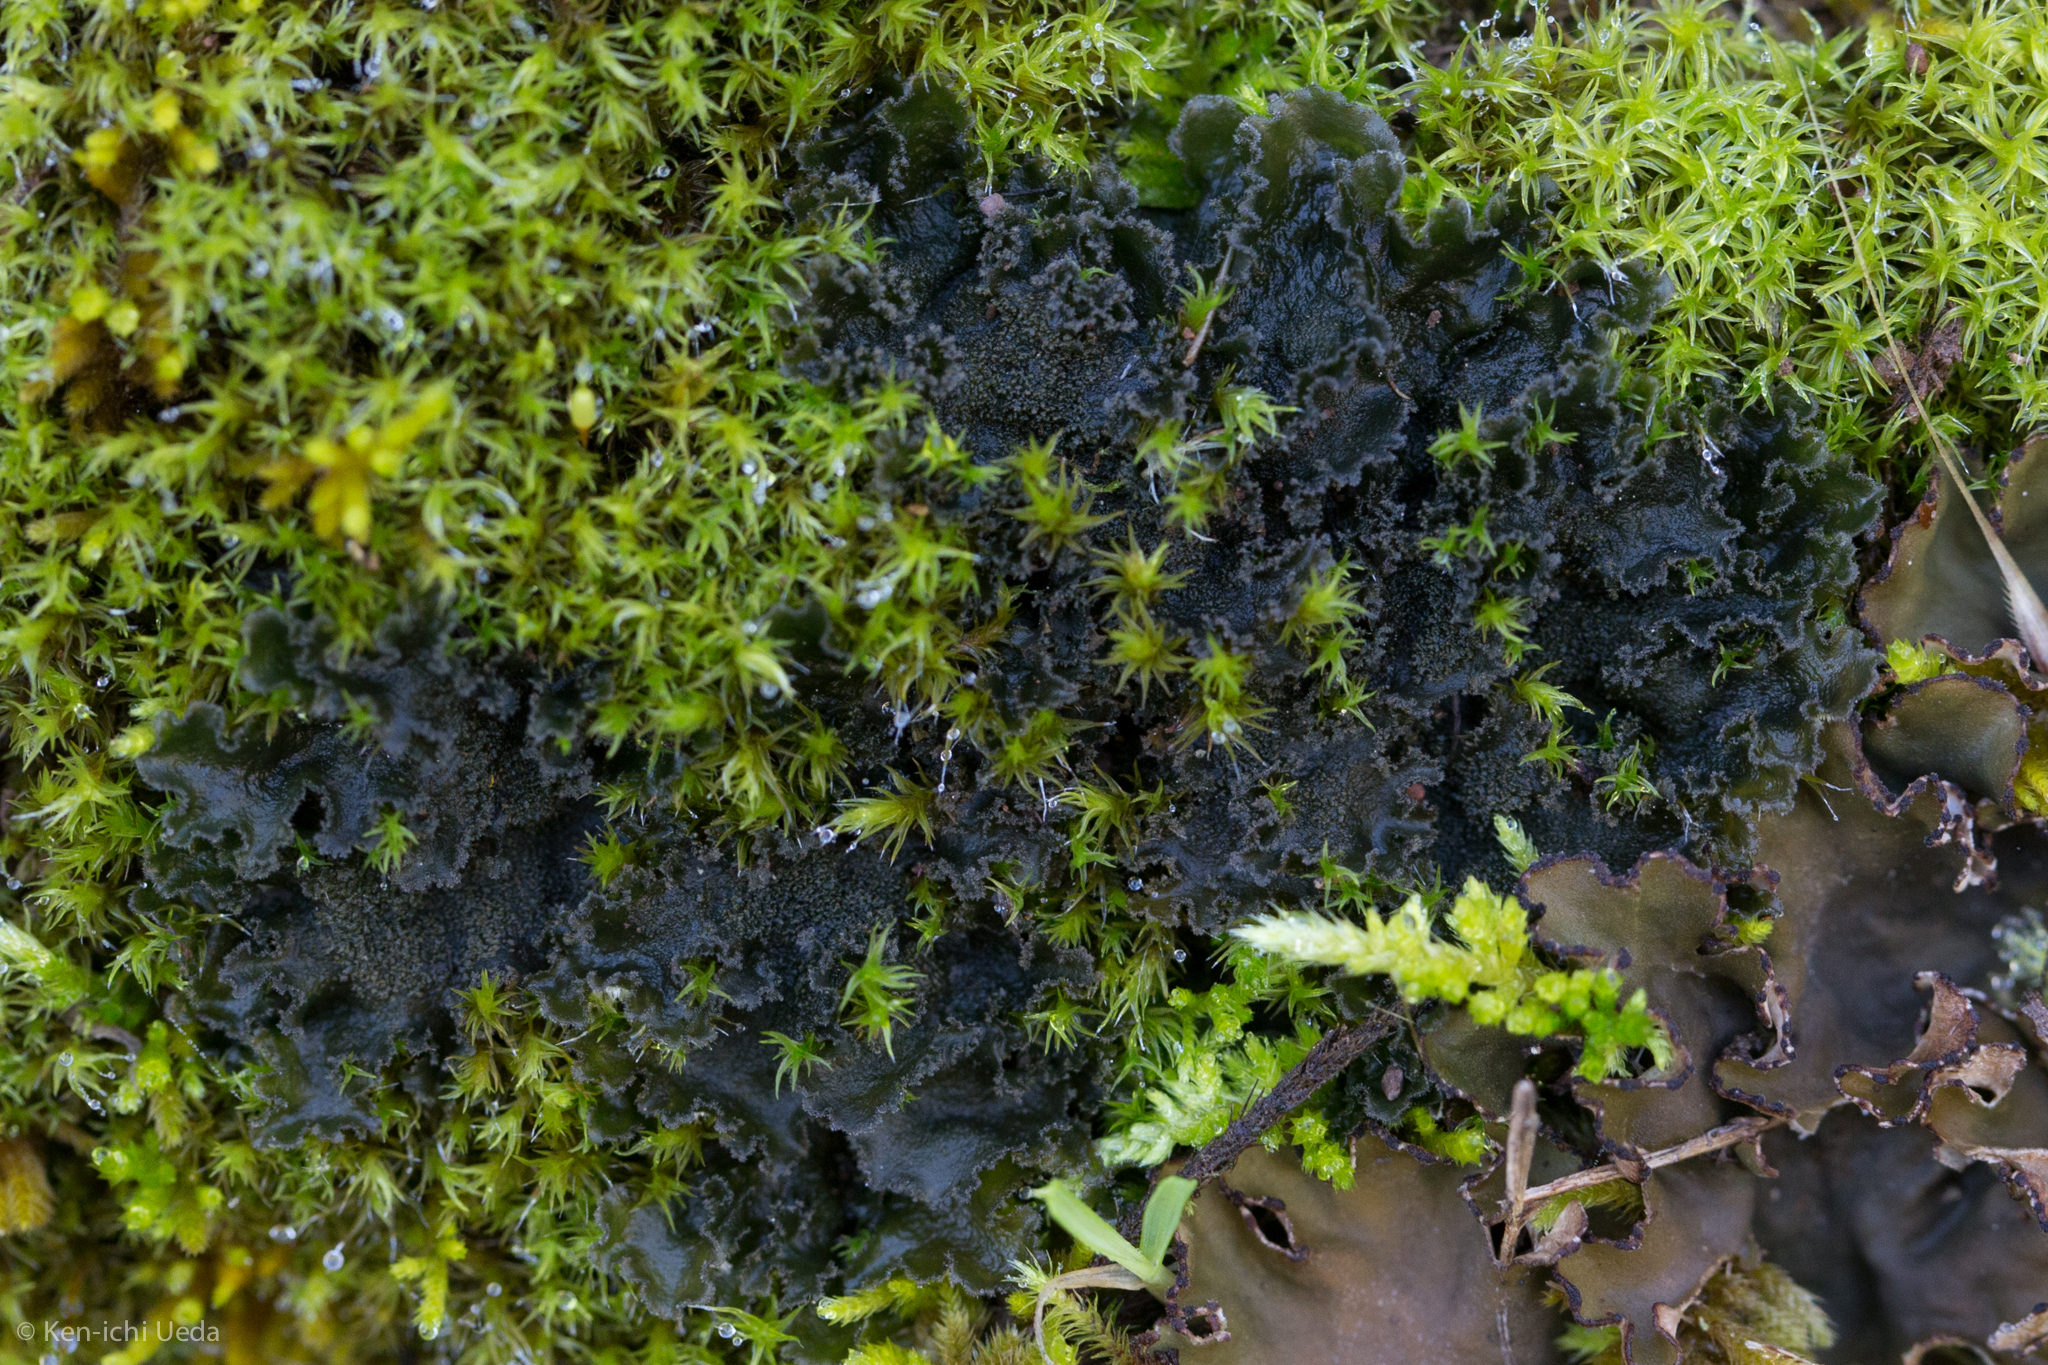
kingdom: Fungi
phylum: Ascomycota
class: Lecanoromycetes
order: Peltigerales
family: Massalongiaceae
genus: Leptochidium
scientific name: Leptochidium albociliatum
